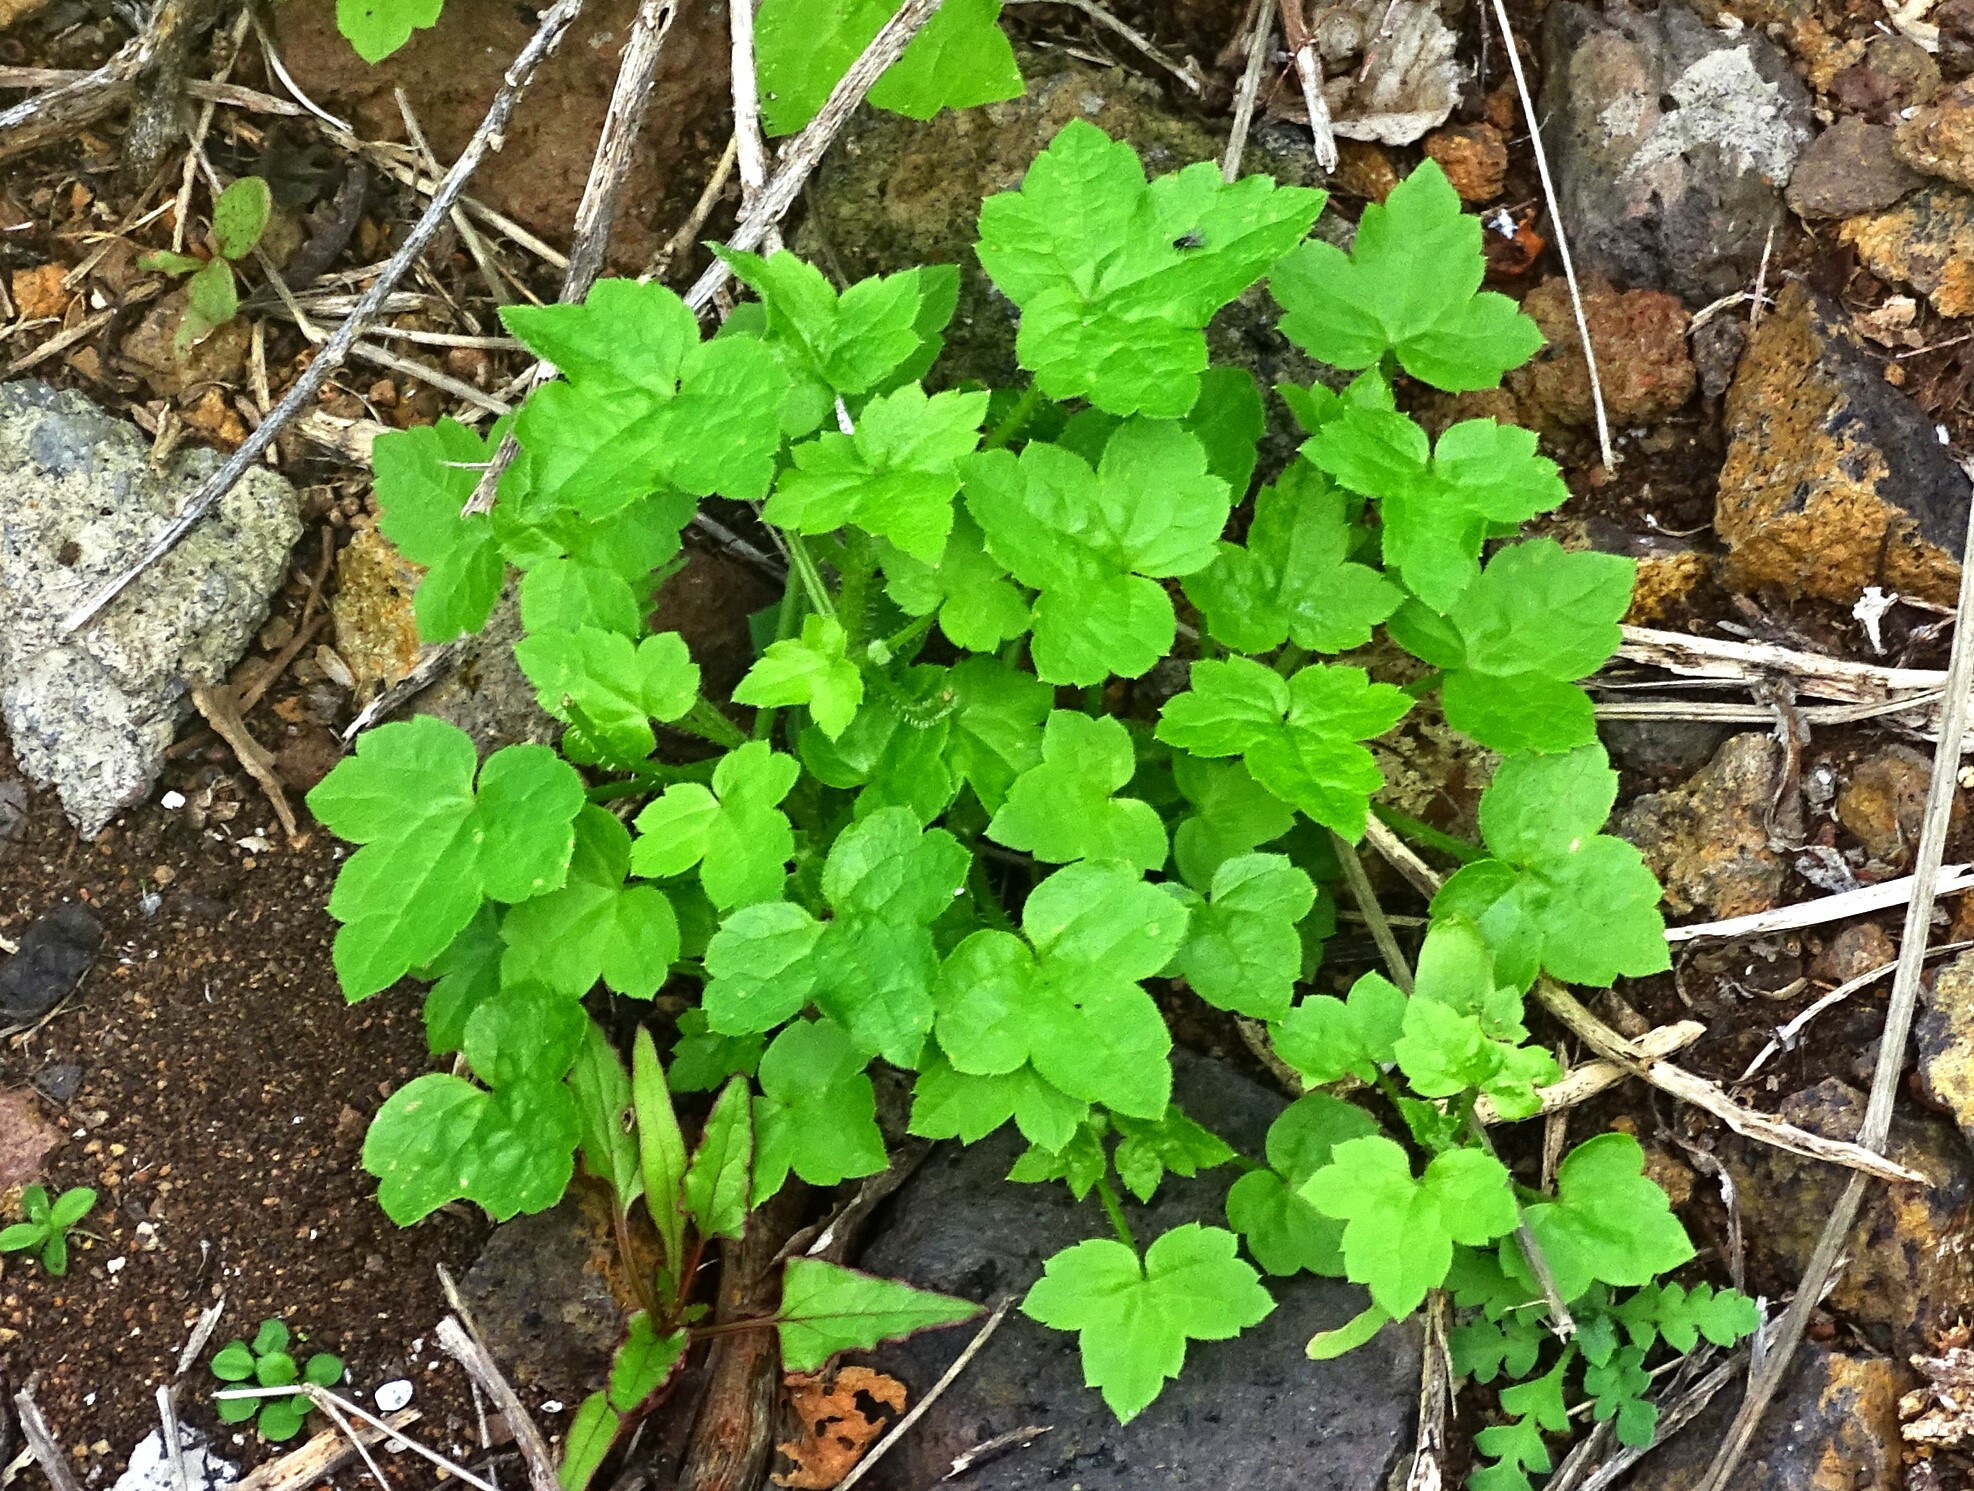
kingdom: Plantae
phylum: Tracheophyta
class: Magnoliopsida
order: Apiales
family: Apiaceae
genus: Drusa
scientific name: Drusa glandulosa
